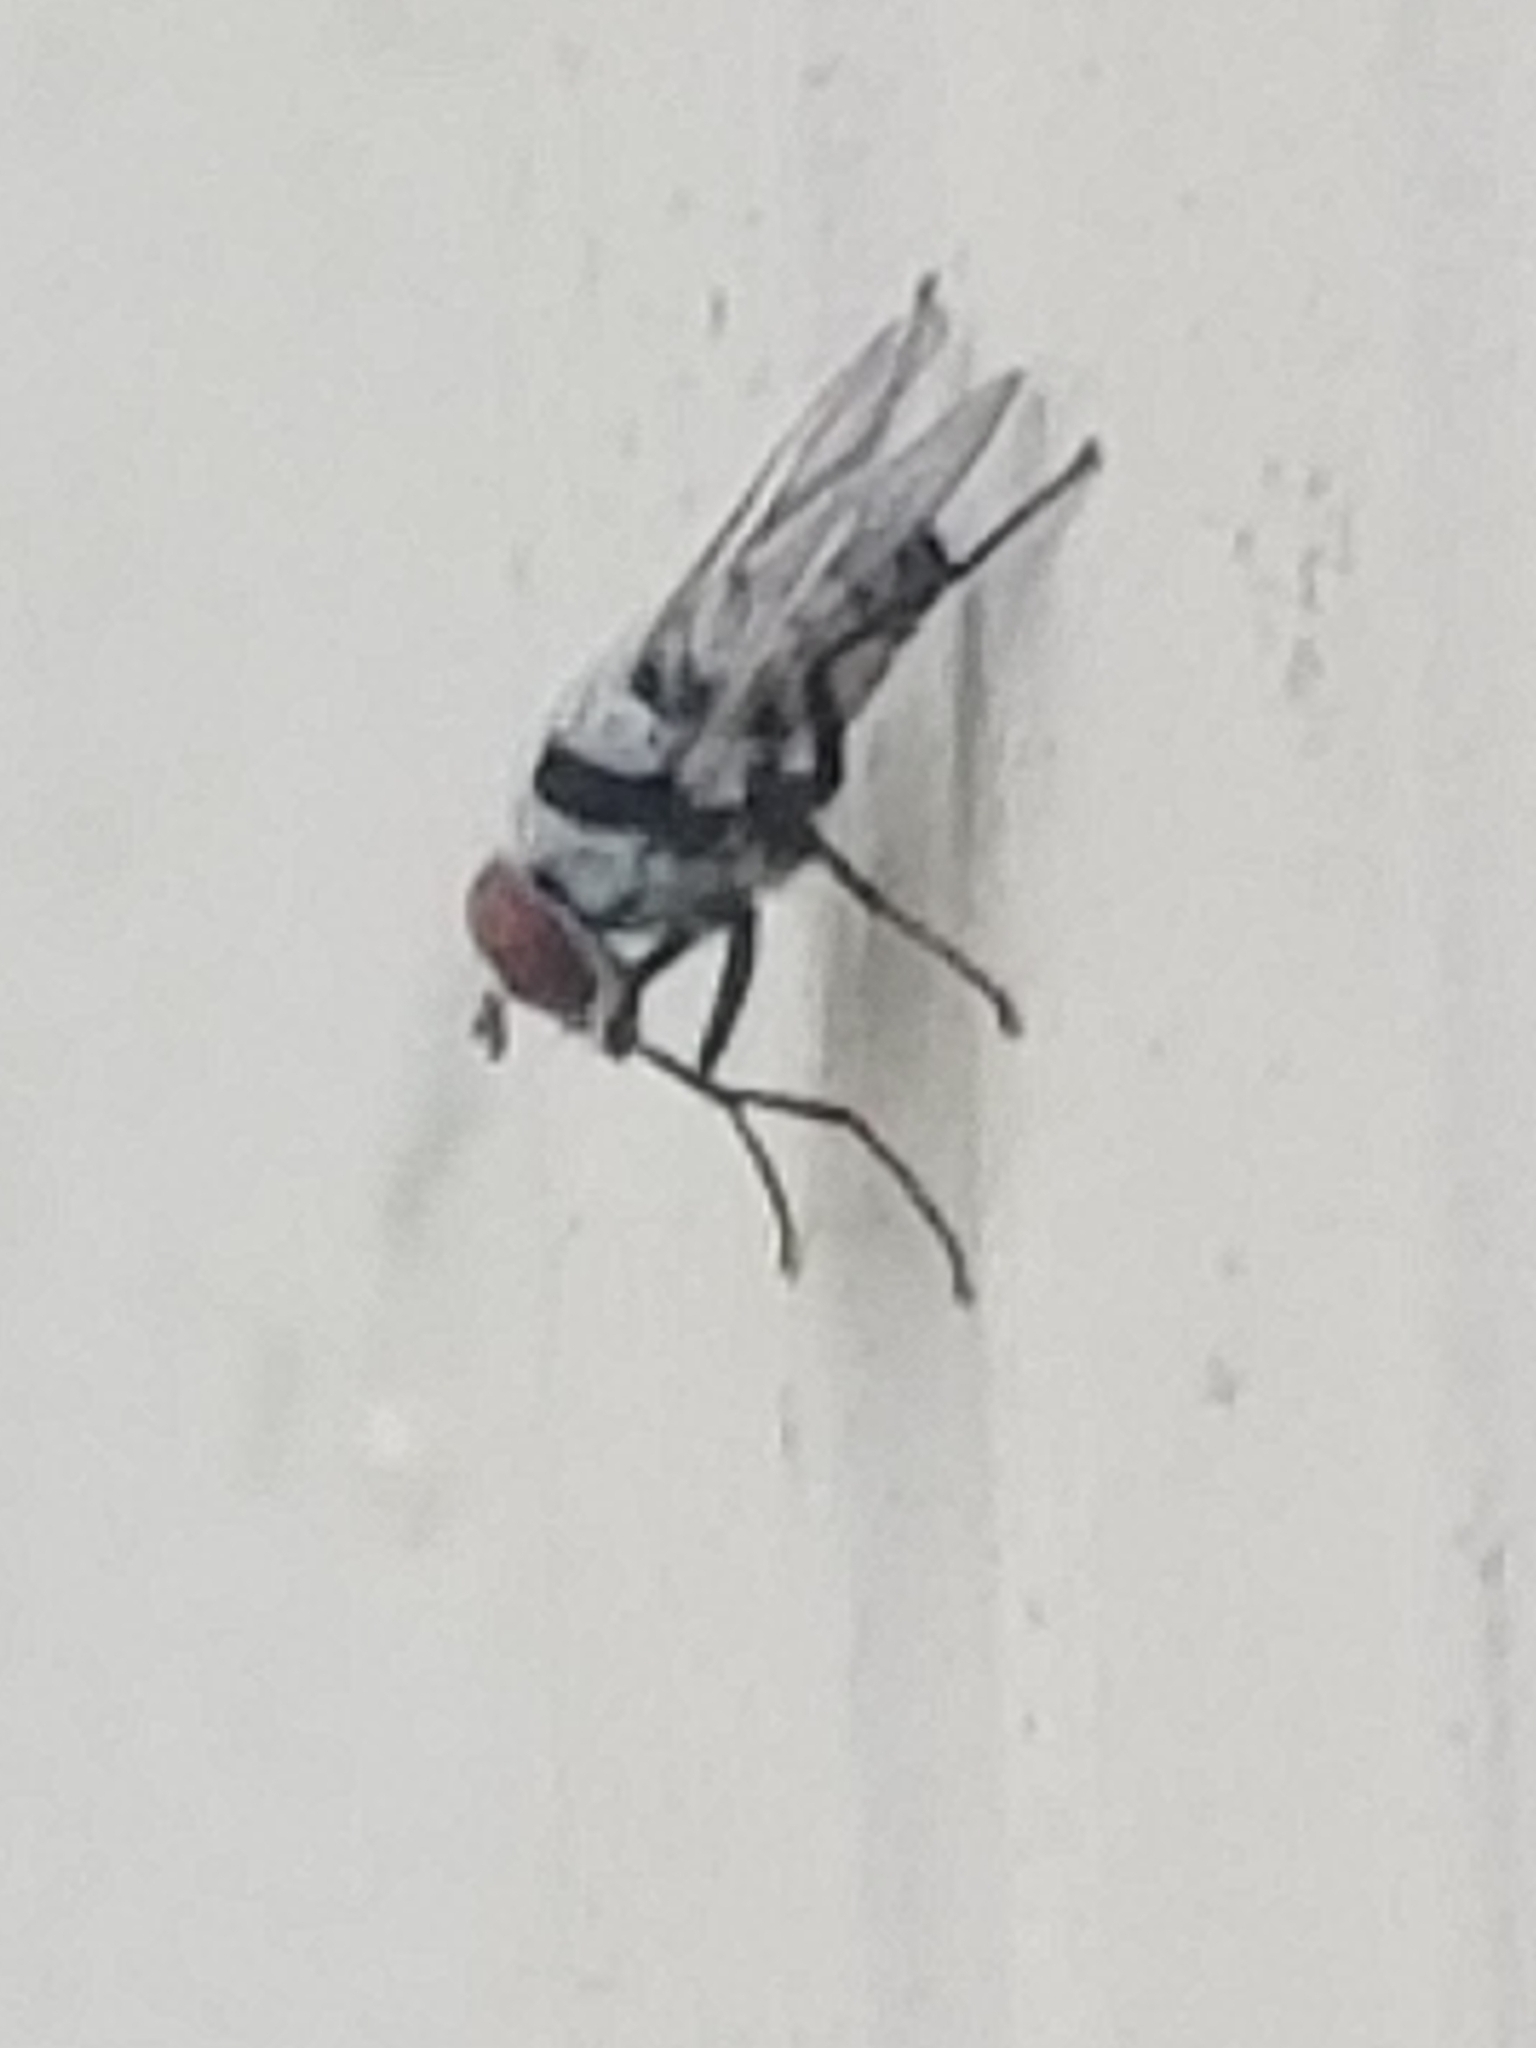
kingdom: Animalia
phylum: Arthropoda
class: Insecta
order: Diptera
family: Anthomyiidae
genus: Anthomyia
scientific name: Anthomyia illocata
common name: Fly
